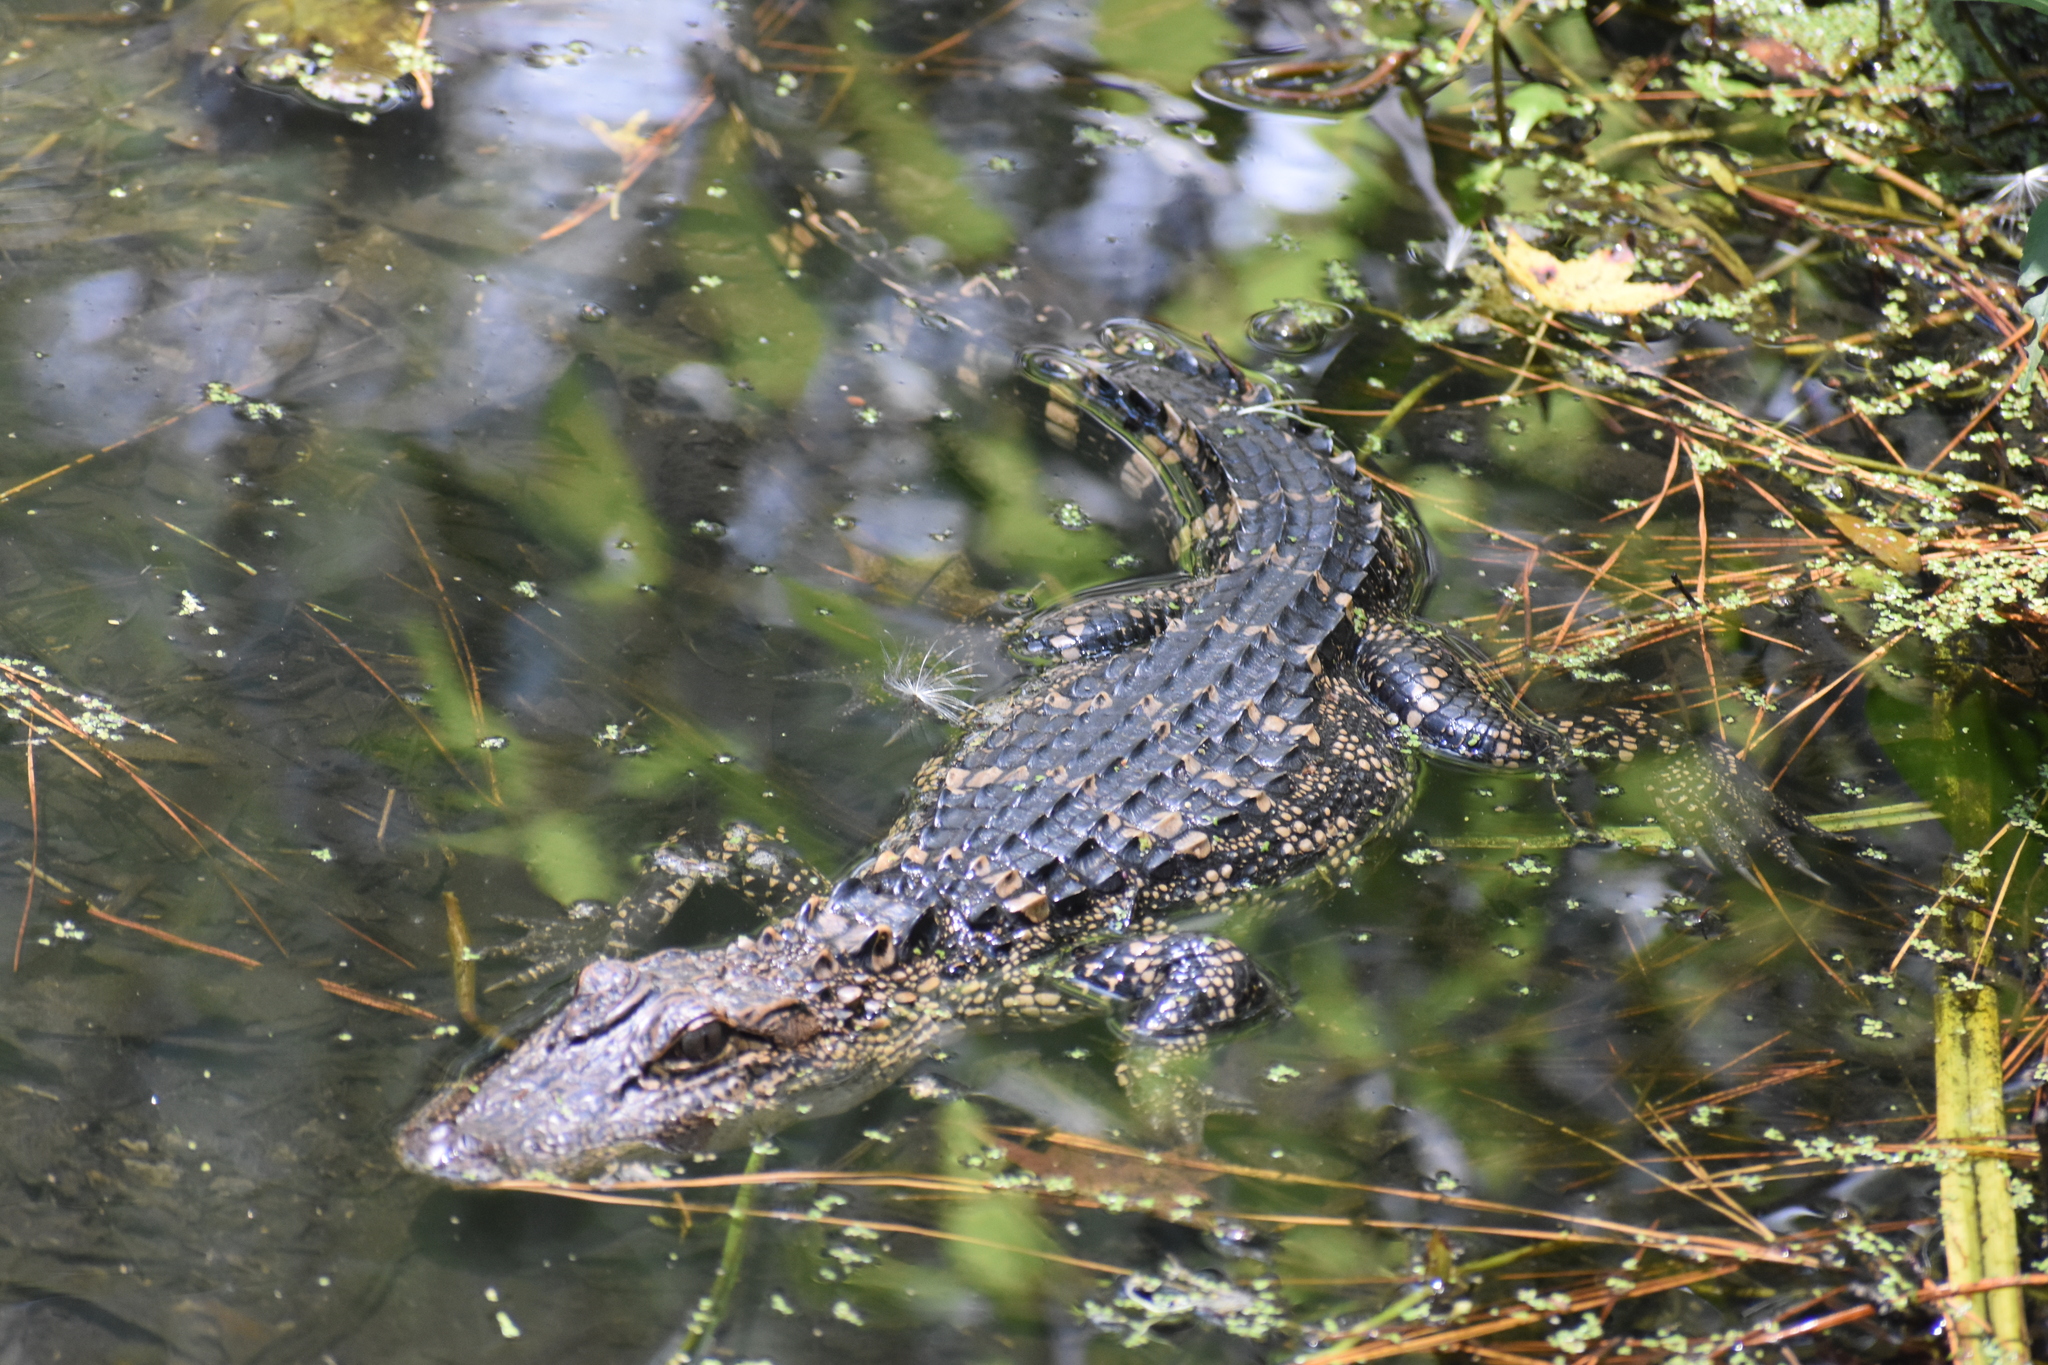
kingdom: Animalia
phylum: Chordata
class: Crocodylia
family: Alligatoridae
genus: Alligator
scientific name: Alligator mississippiensis
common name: American alligator
